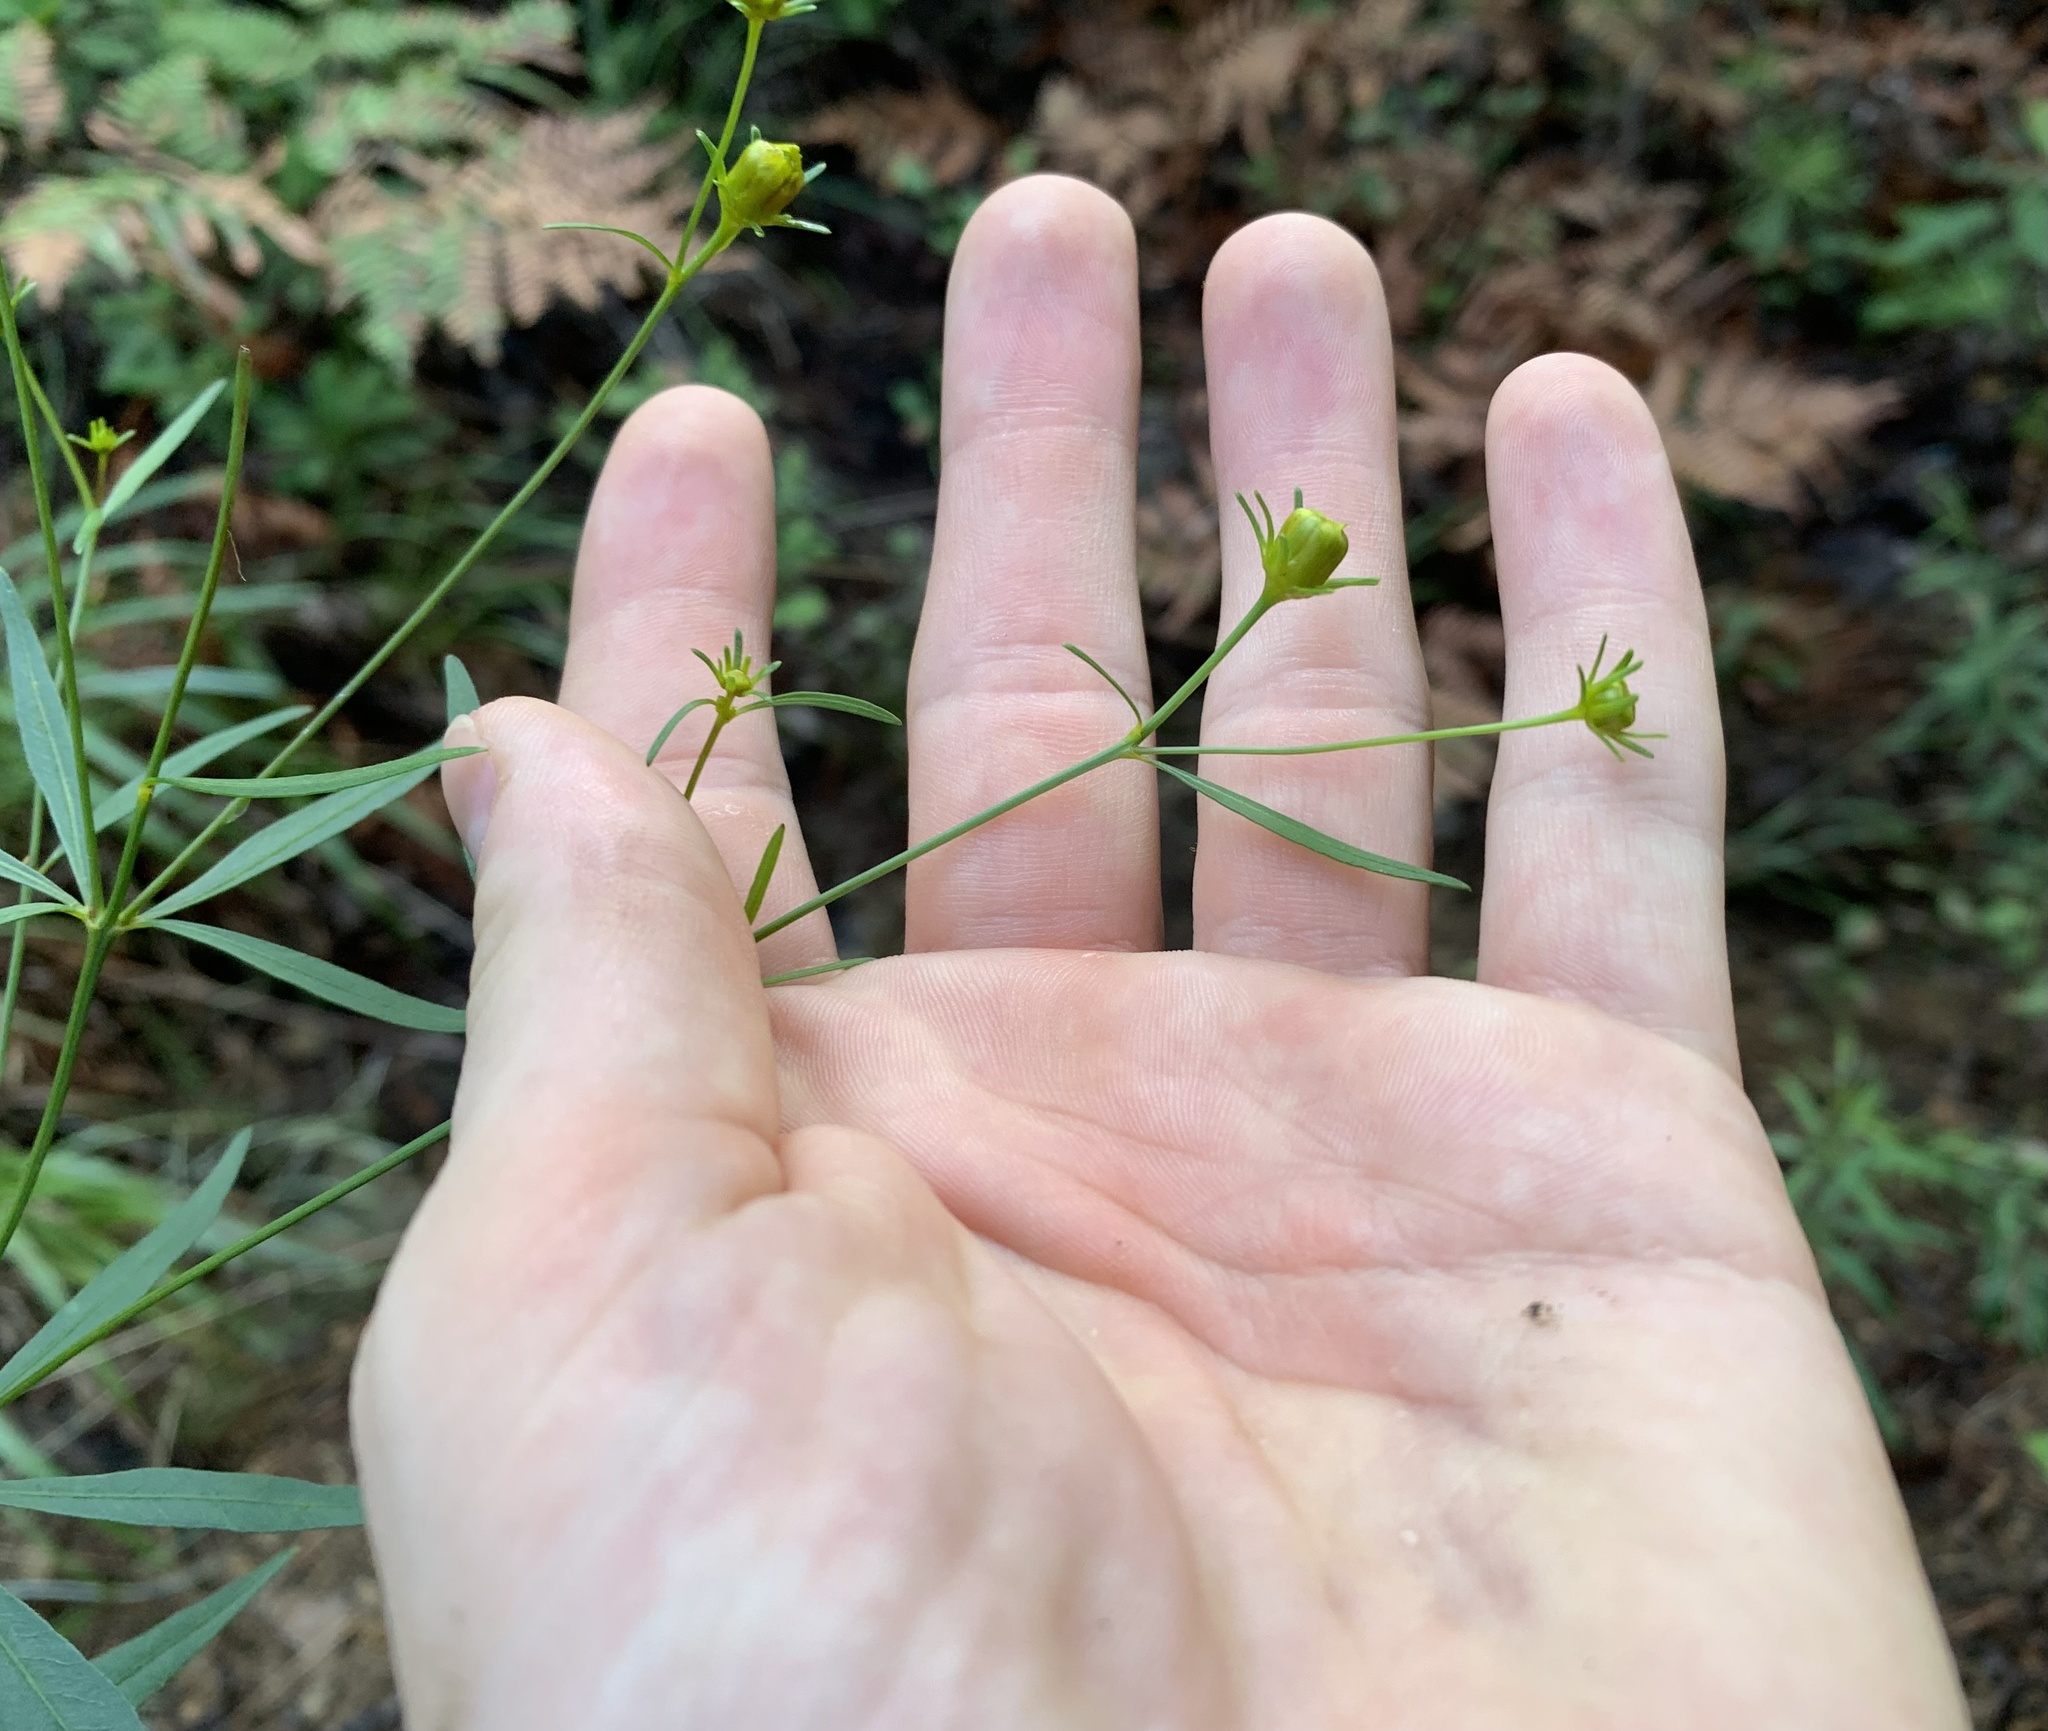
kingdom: Plantae
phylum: Tracheophyta
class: Magnoliopsida
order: Asterales
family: Asteraceae
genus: Coreopsis
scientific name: Coreopsis major
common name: Forest tickseed
